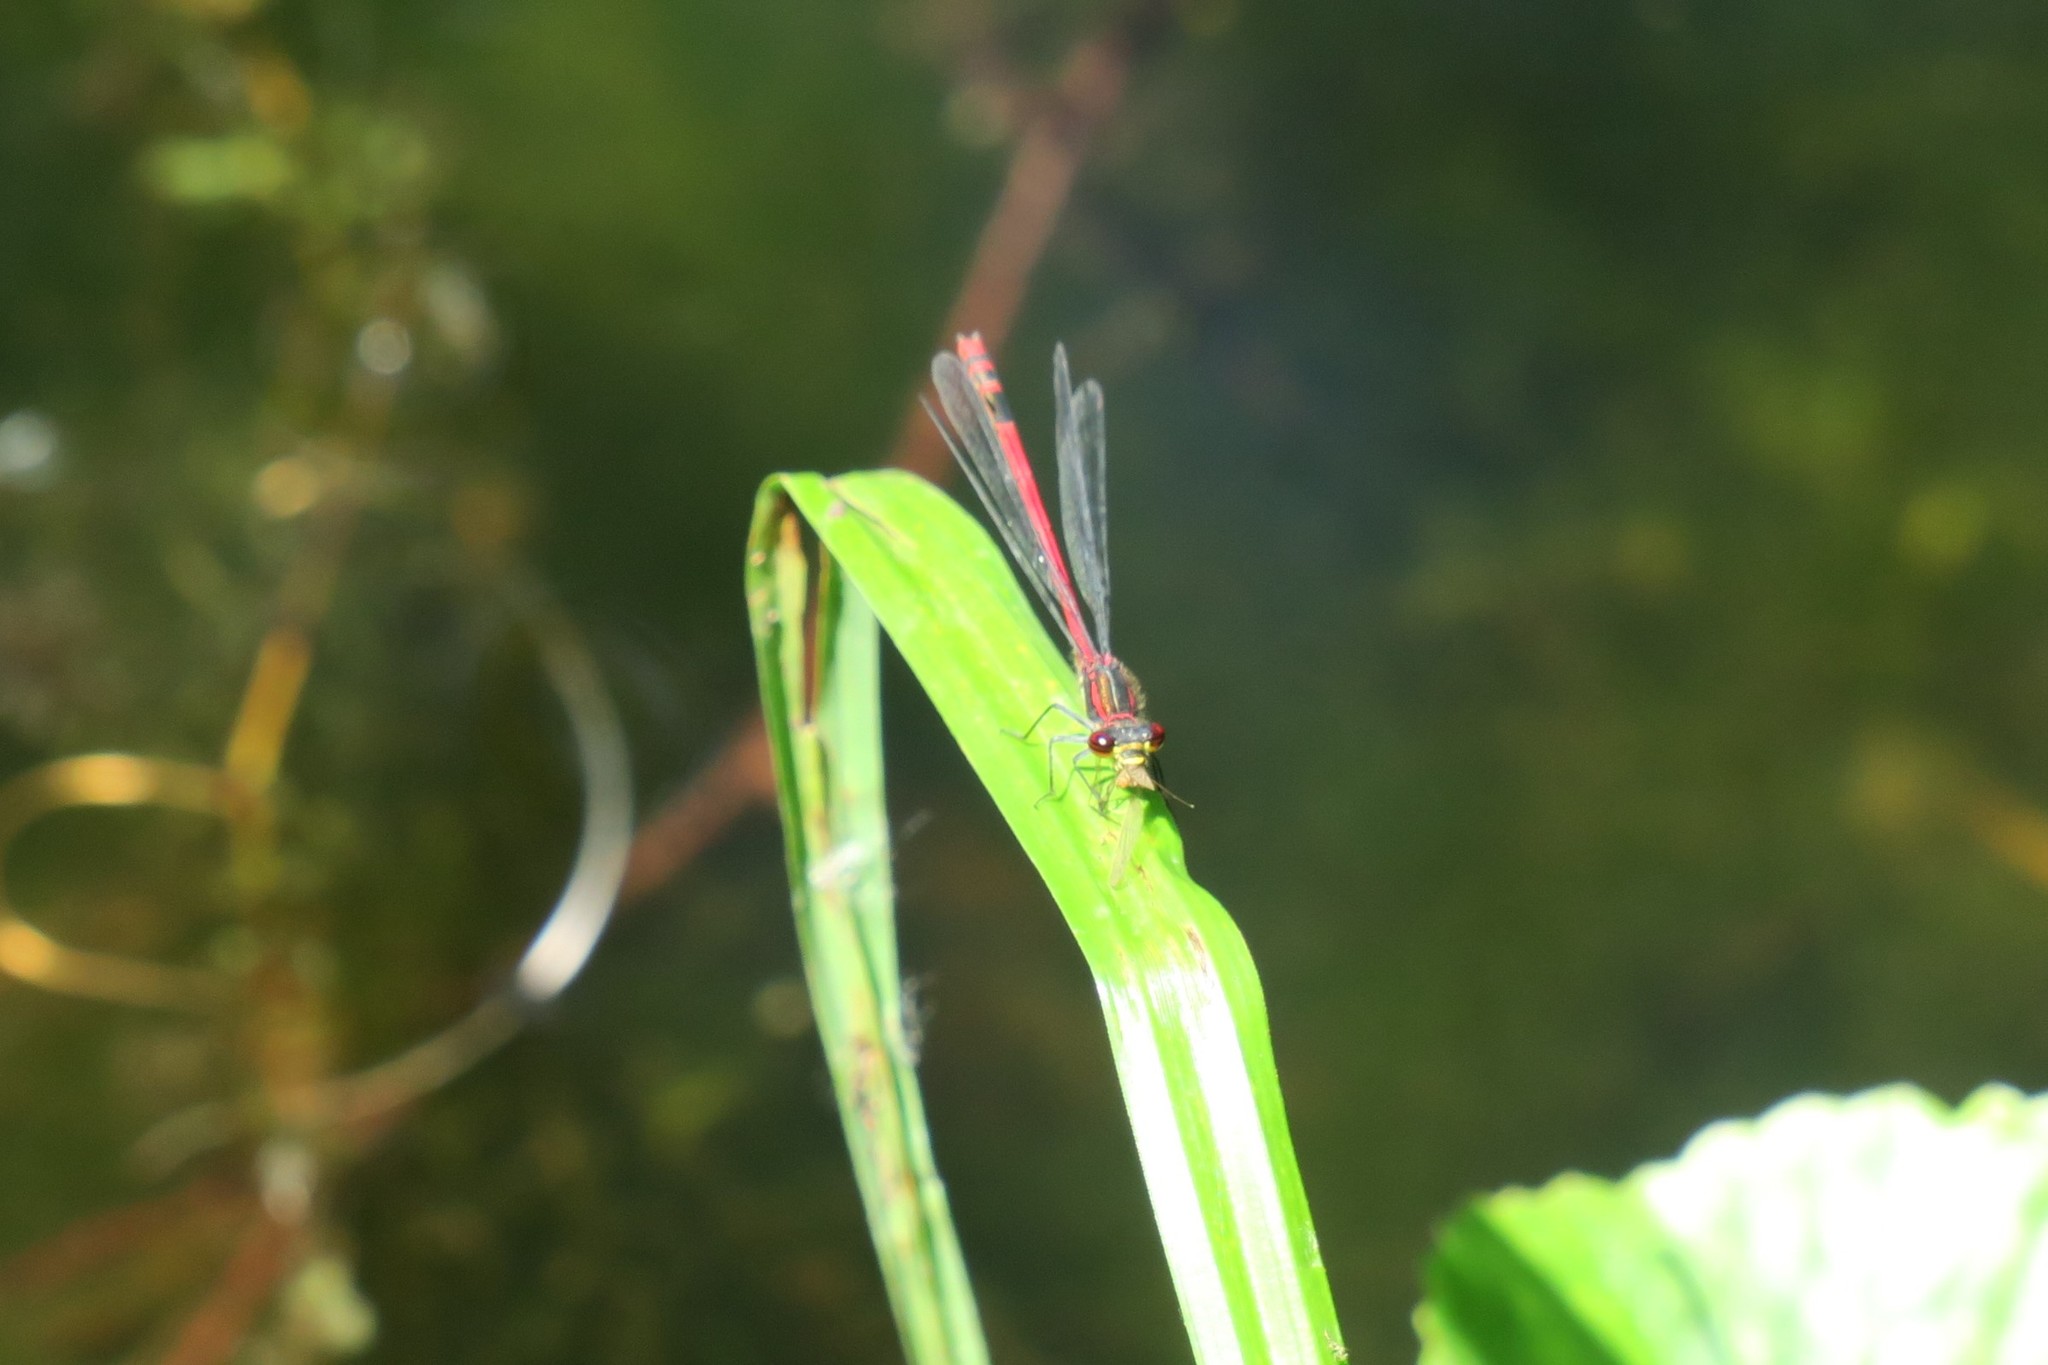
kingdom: Animalia
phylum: Arthropoda
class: Insecta
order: Odonata
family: Coenagrionidae
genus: Pyrrhosoma
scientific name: Pyrrhosoma nymphula
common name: Large red damsel
